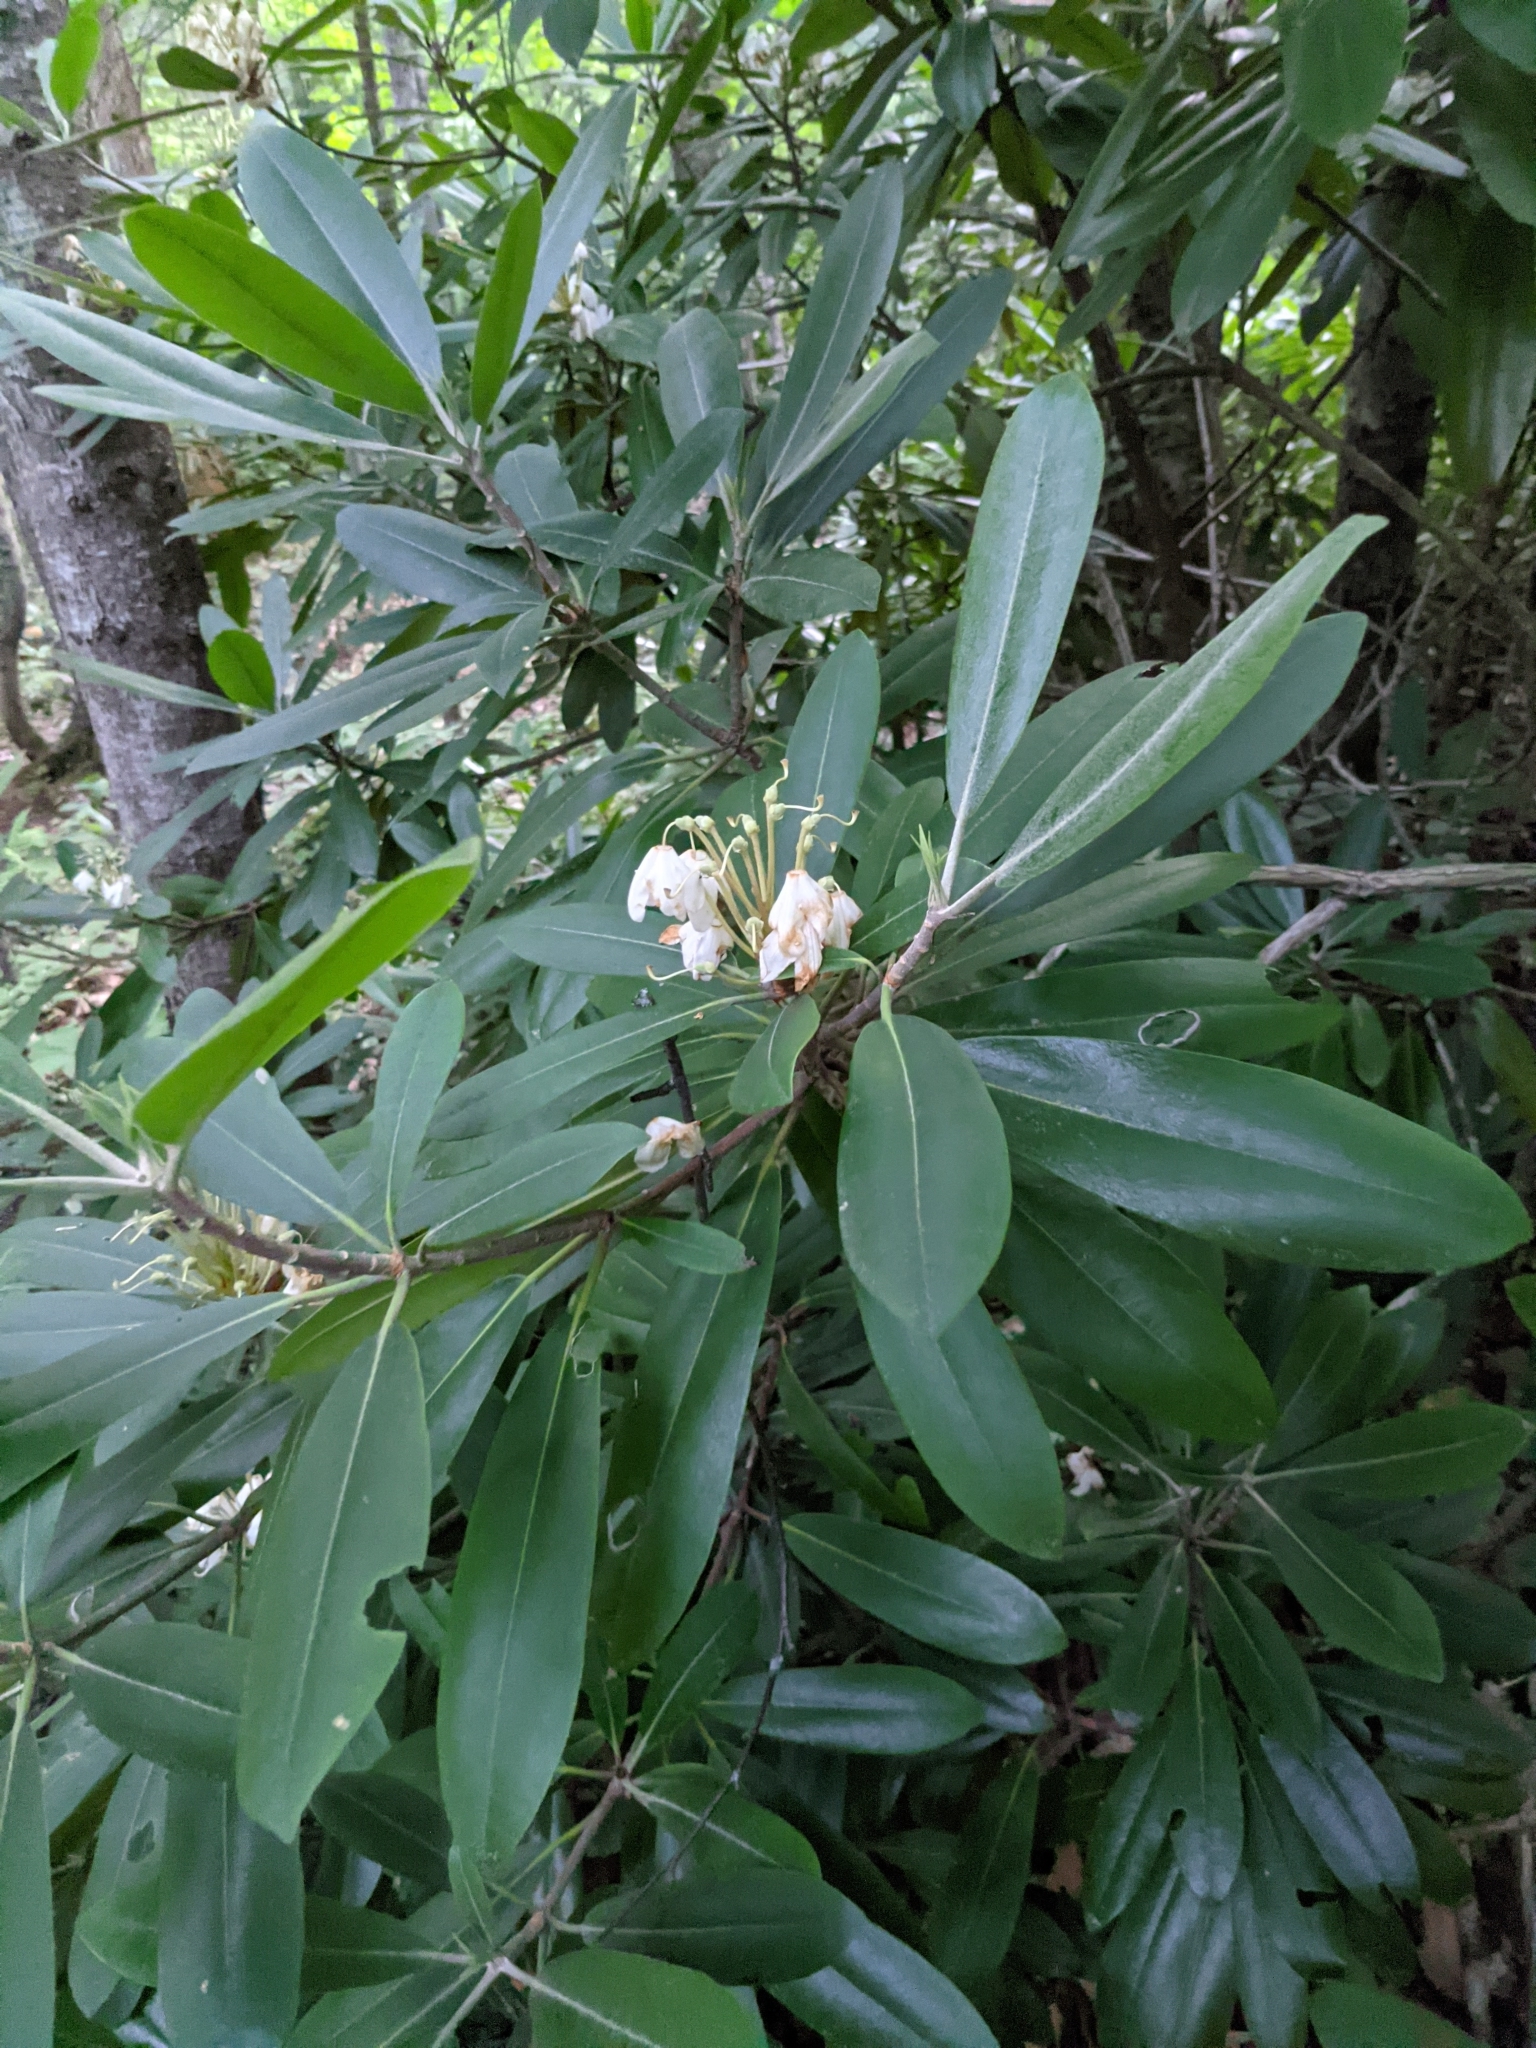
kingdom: Plantae
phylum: Tracheophyta
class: Magnoliopsida
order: Ericales
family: Ericaceae
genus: Rhododendron
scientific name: Rhododendron maximum
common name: Great rhododendron
